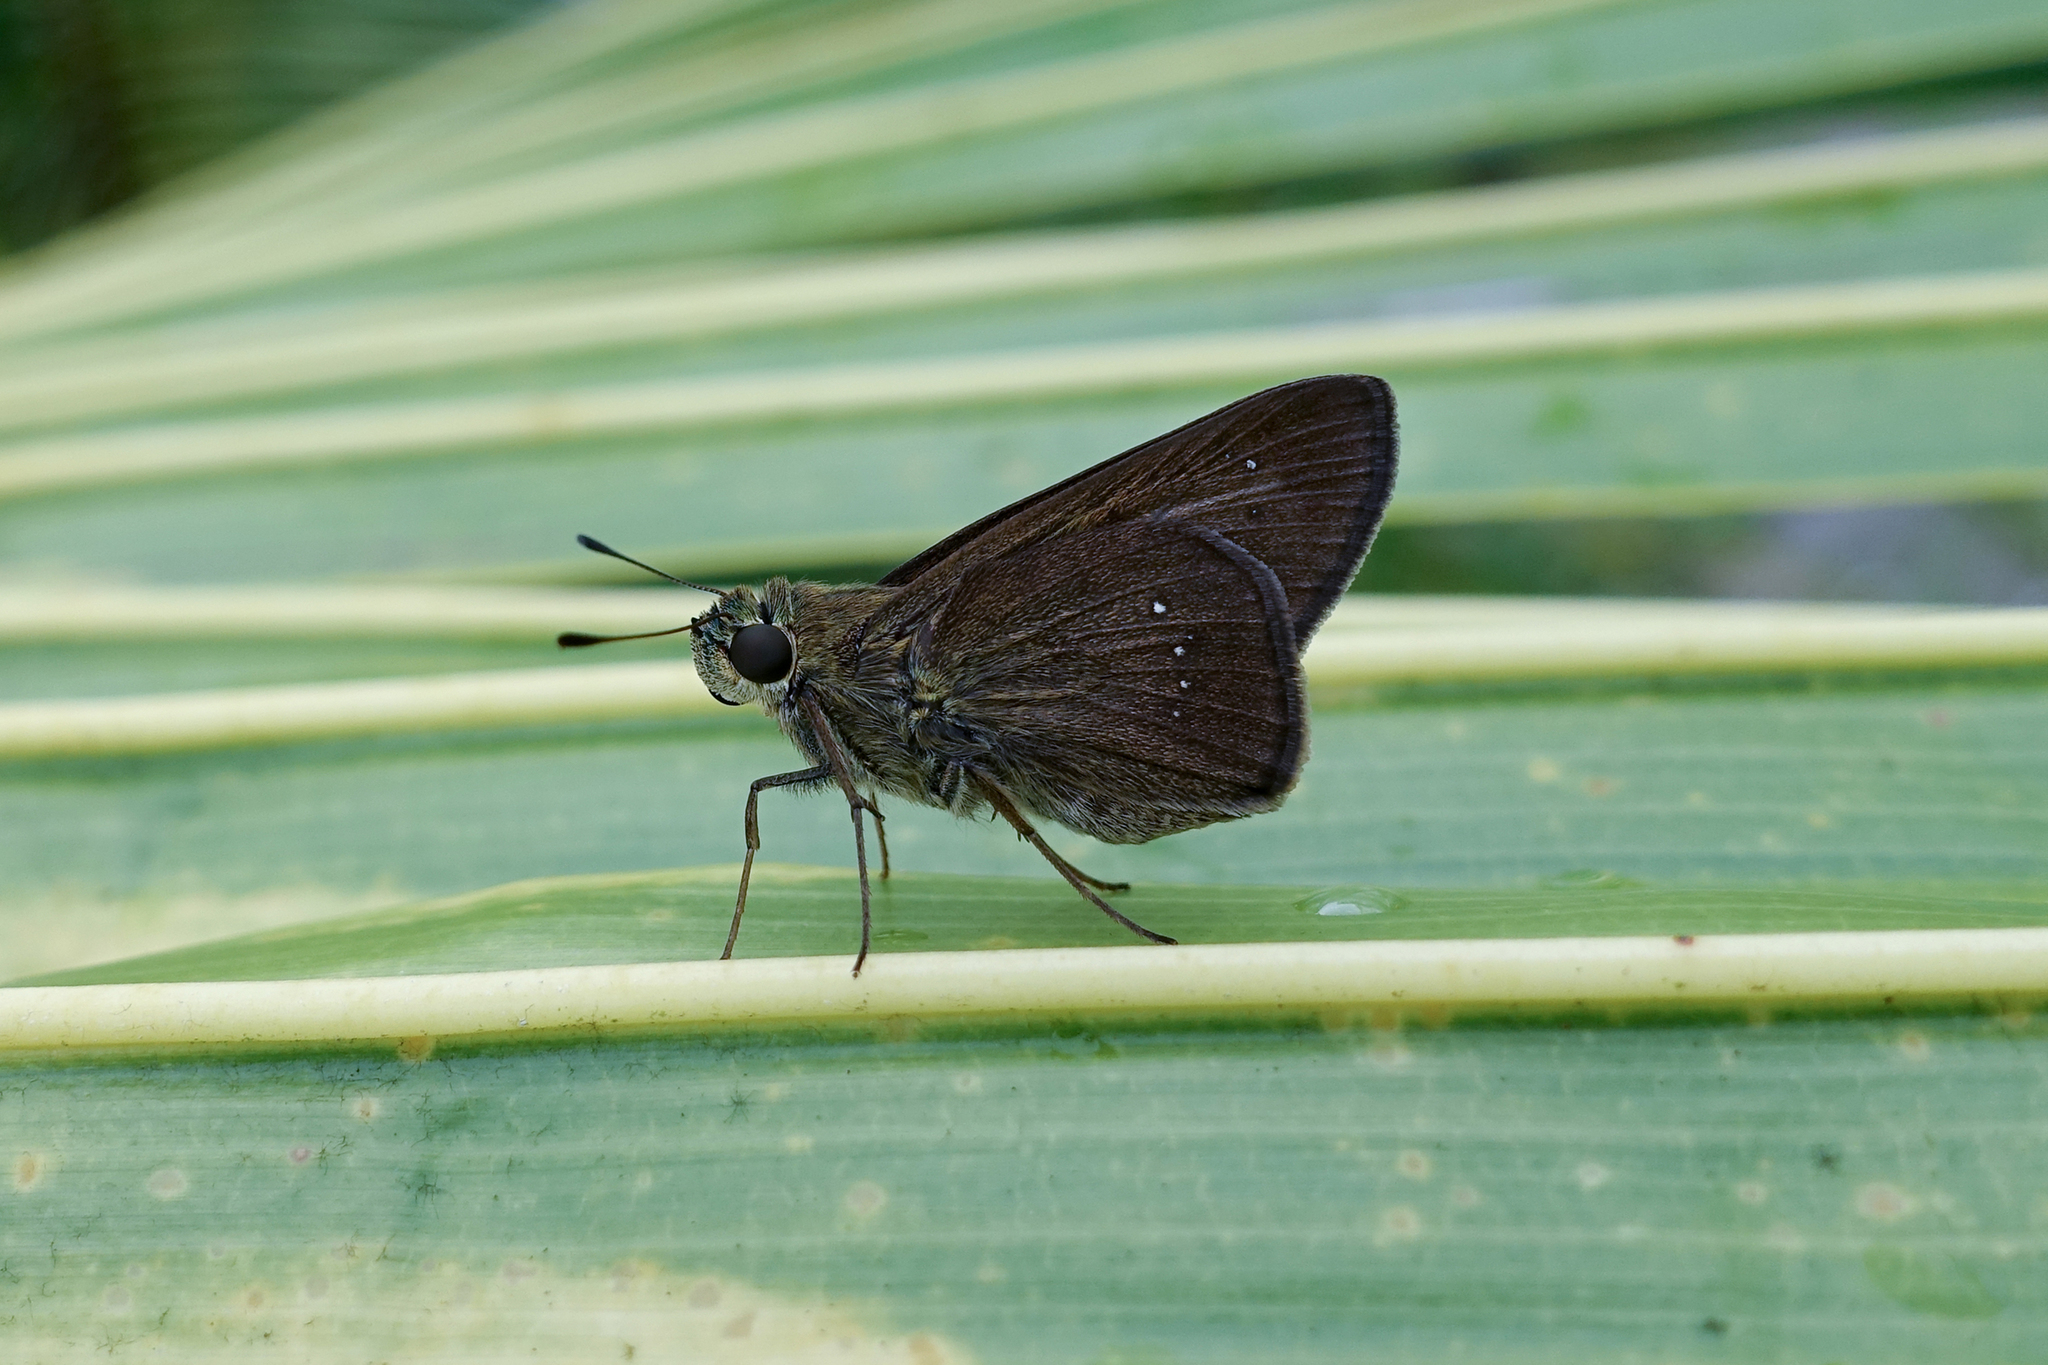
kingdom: Animalia
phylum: Arthropoda
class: Insecta
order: Lepidoptera
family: Hesperiidae
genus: Pelopidas
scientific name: Pelopidas agna
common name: Little branded swift
